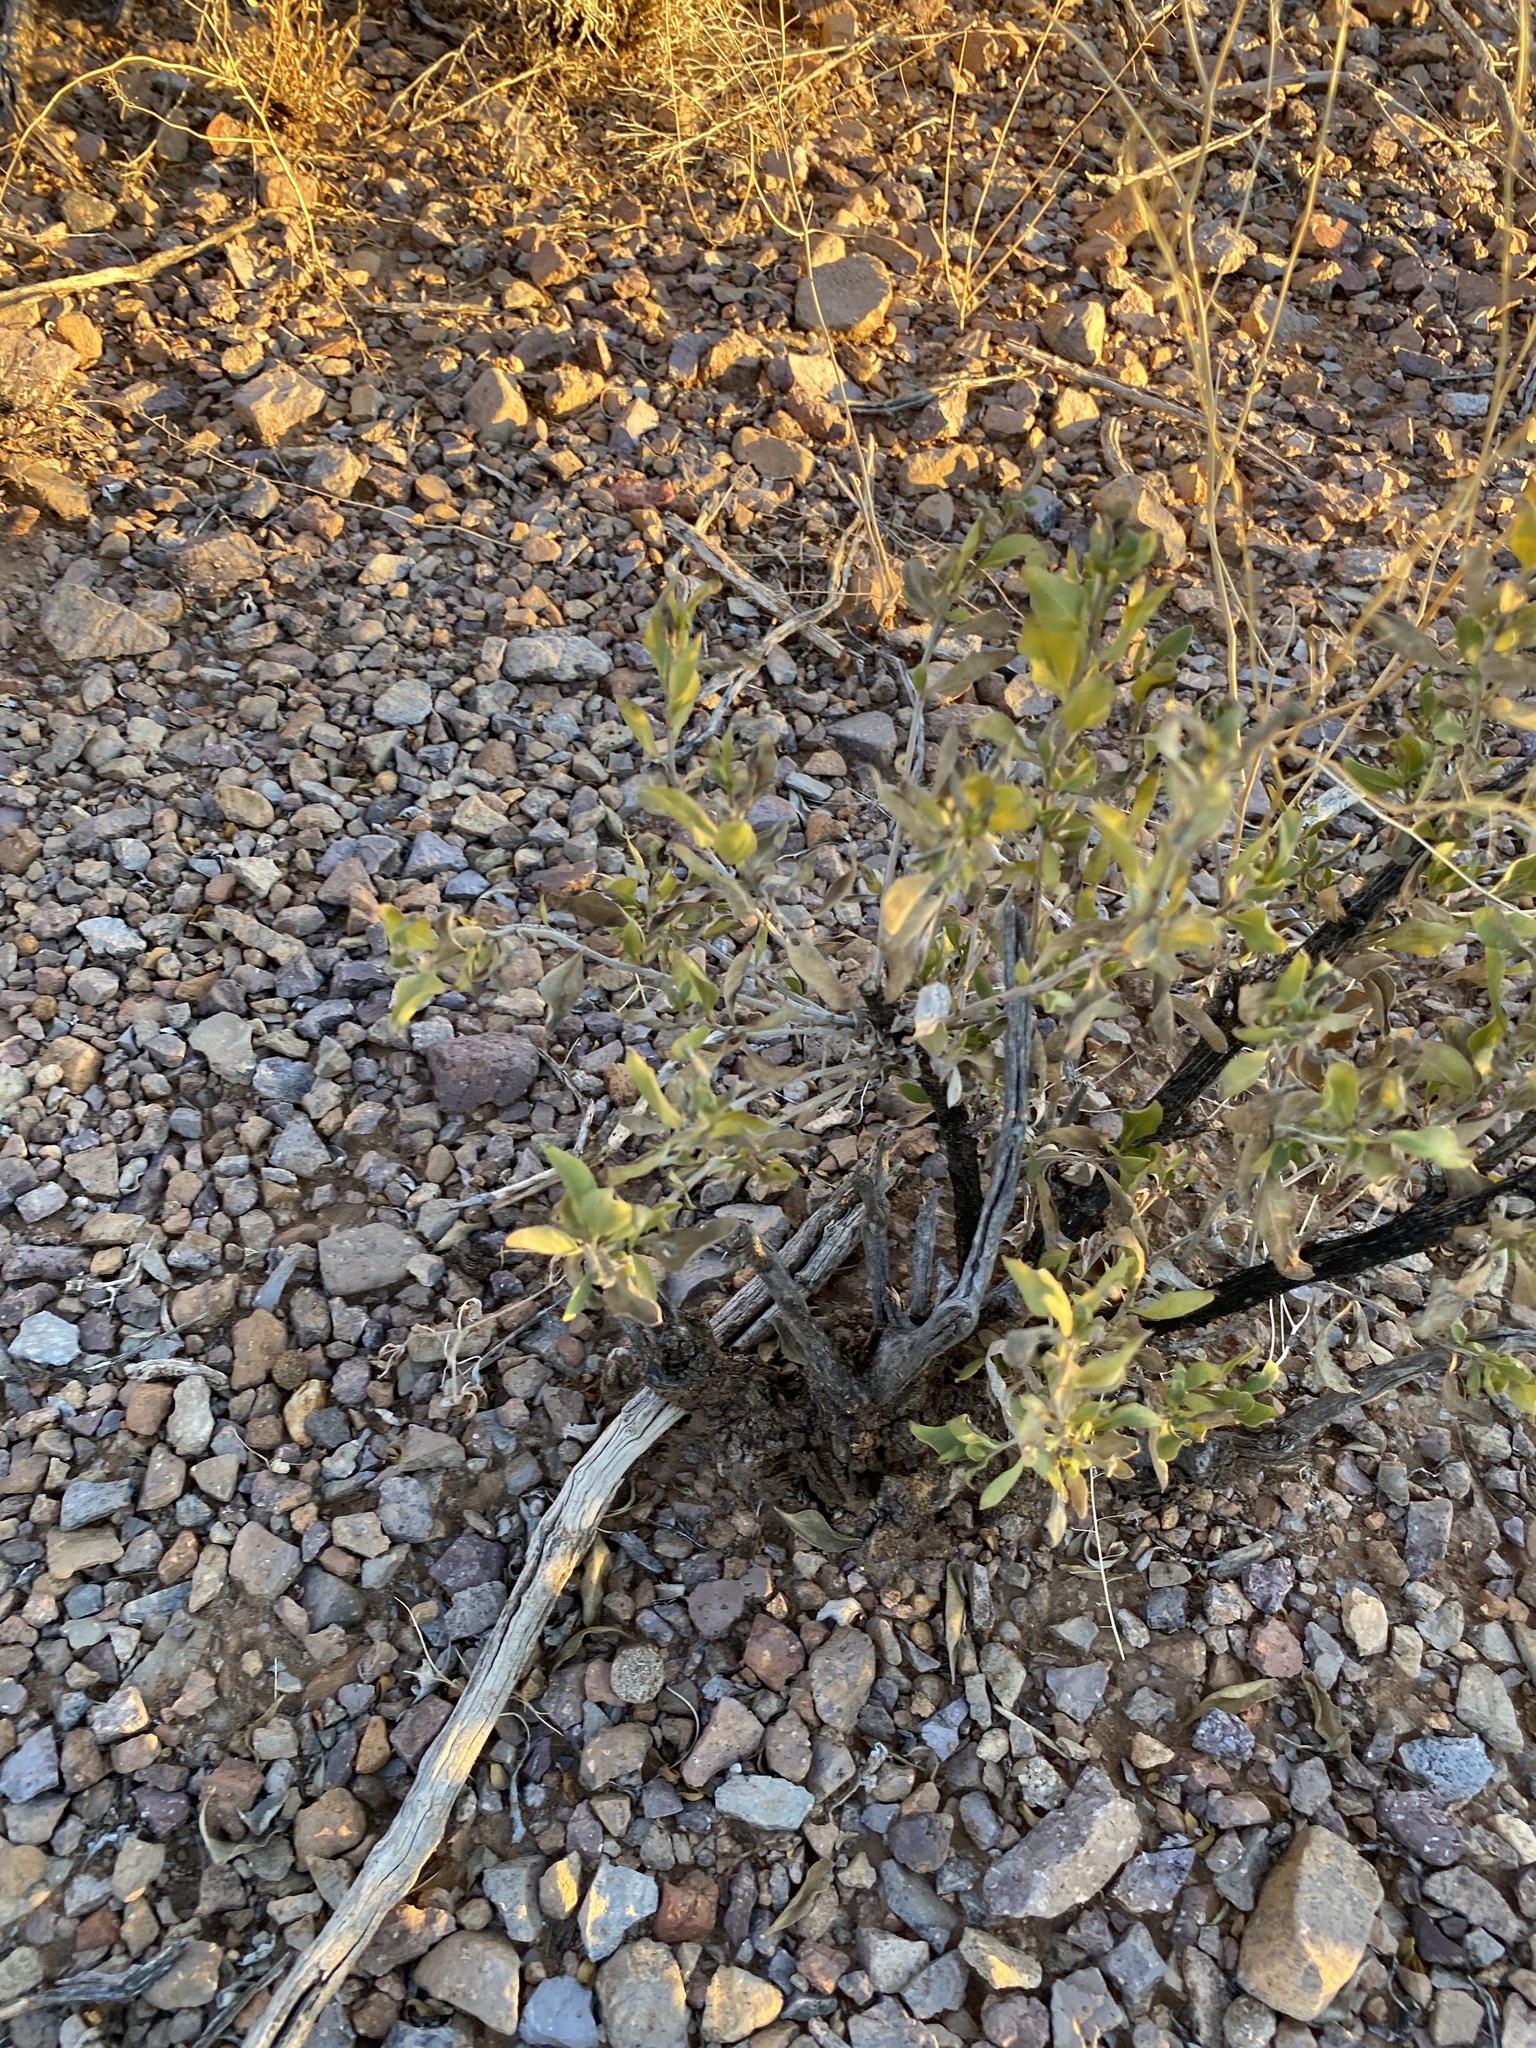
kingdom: Plantae
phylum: Tracheophyta
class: Magnoliopsida
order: Asterales
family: Asteraceae
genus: Flourensia
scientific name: Flourensia cernua
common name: Varnishbush
